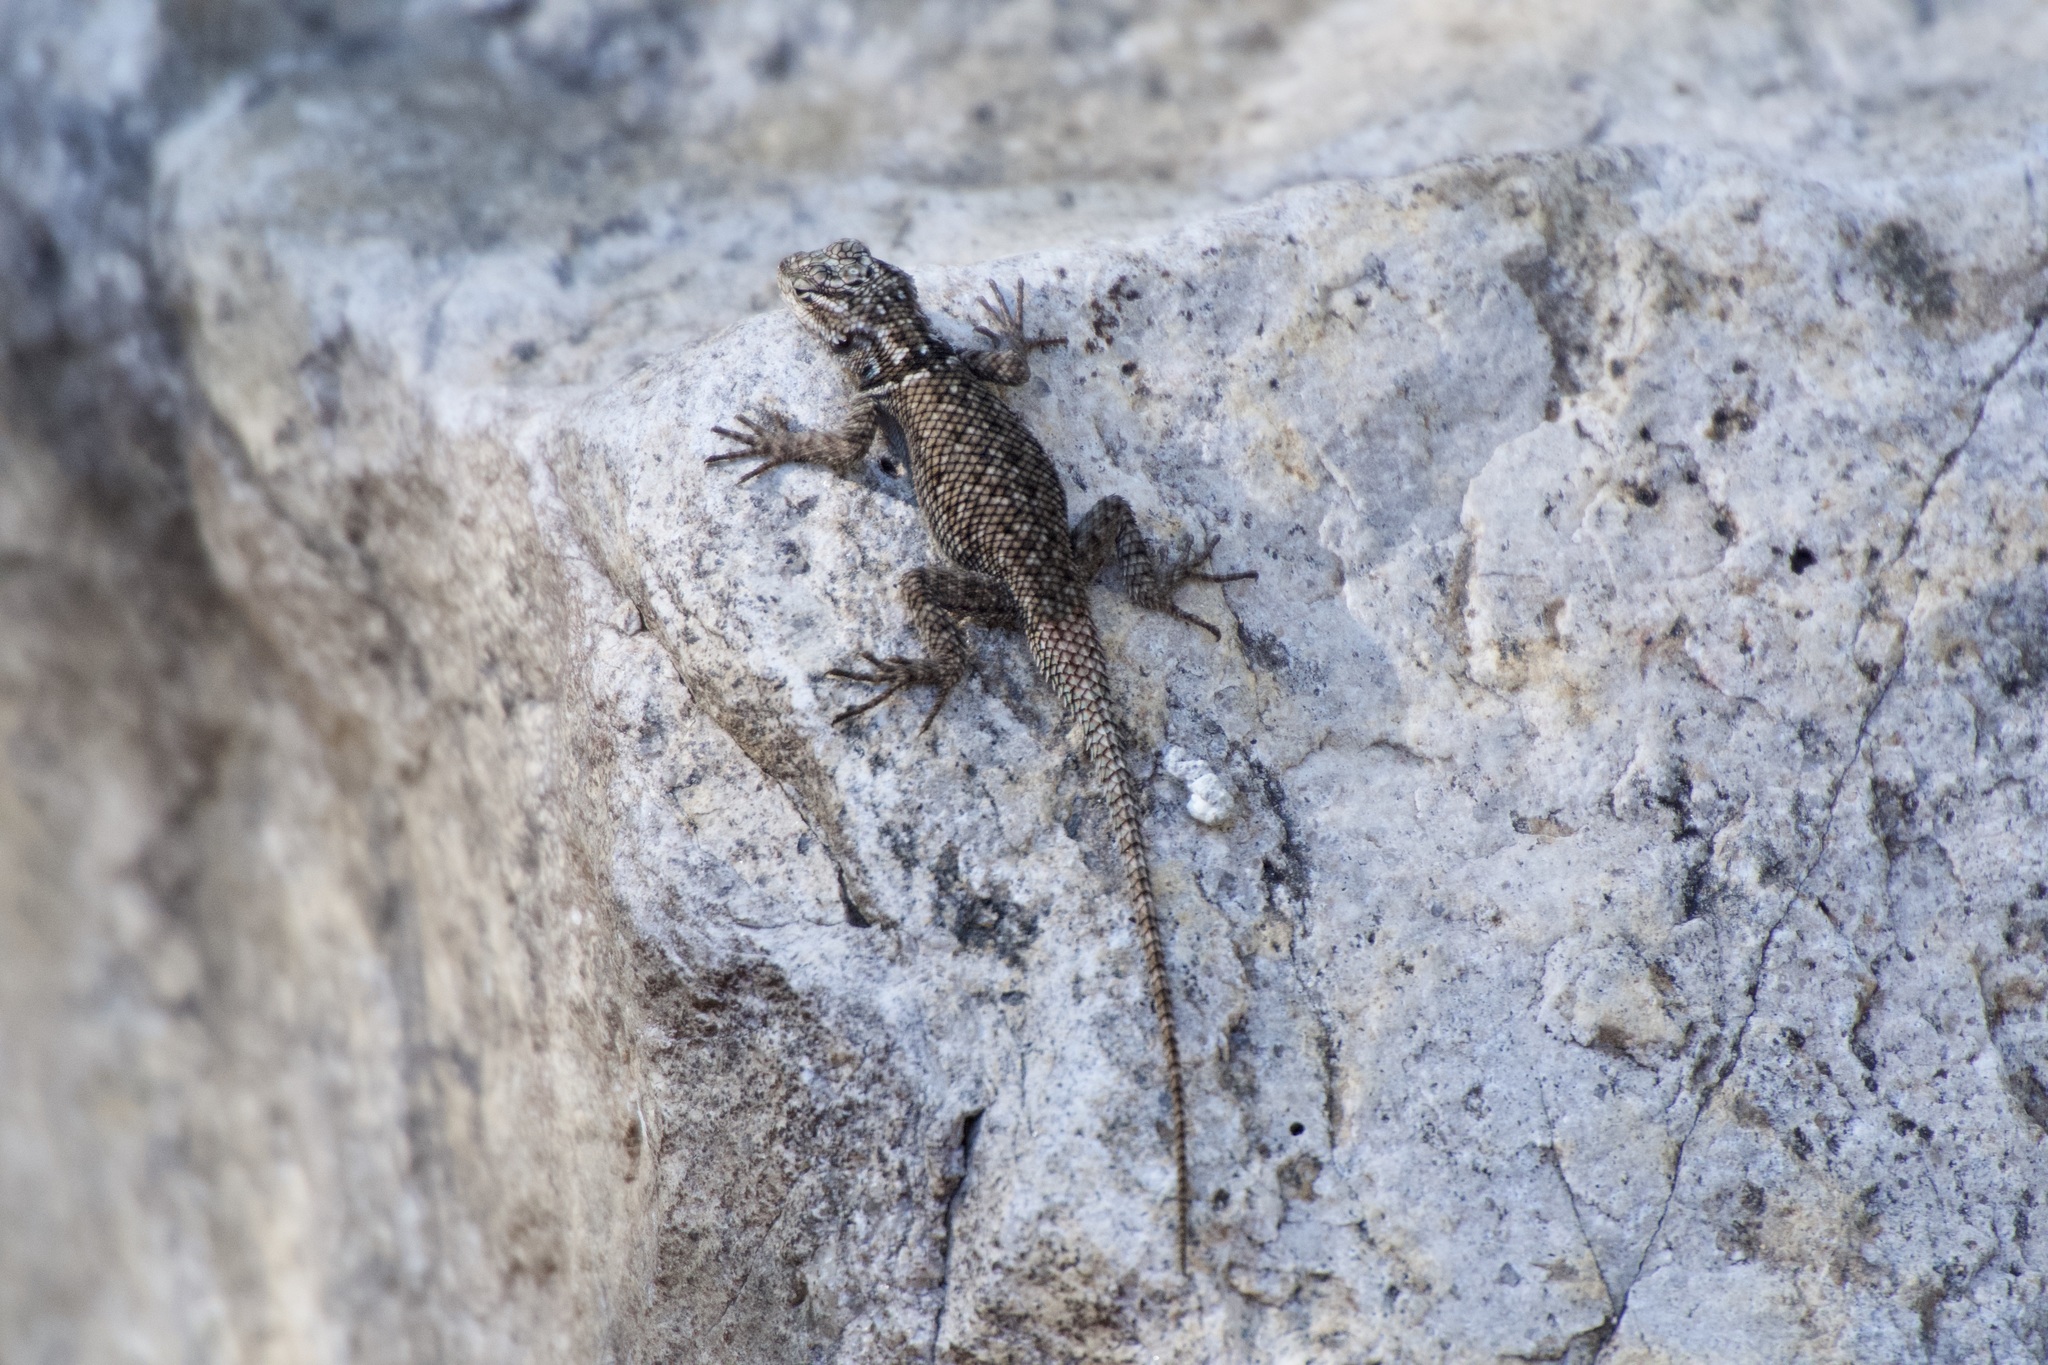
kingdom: Animalia
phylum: Chordata
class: Squamata
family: Phrynosomatidae
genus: Sceloporus
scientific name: Sceloporus jarrovii
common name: Yarrow's spiny lizard
